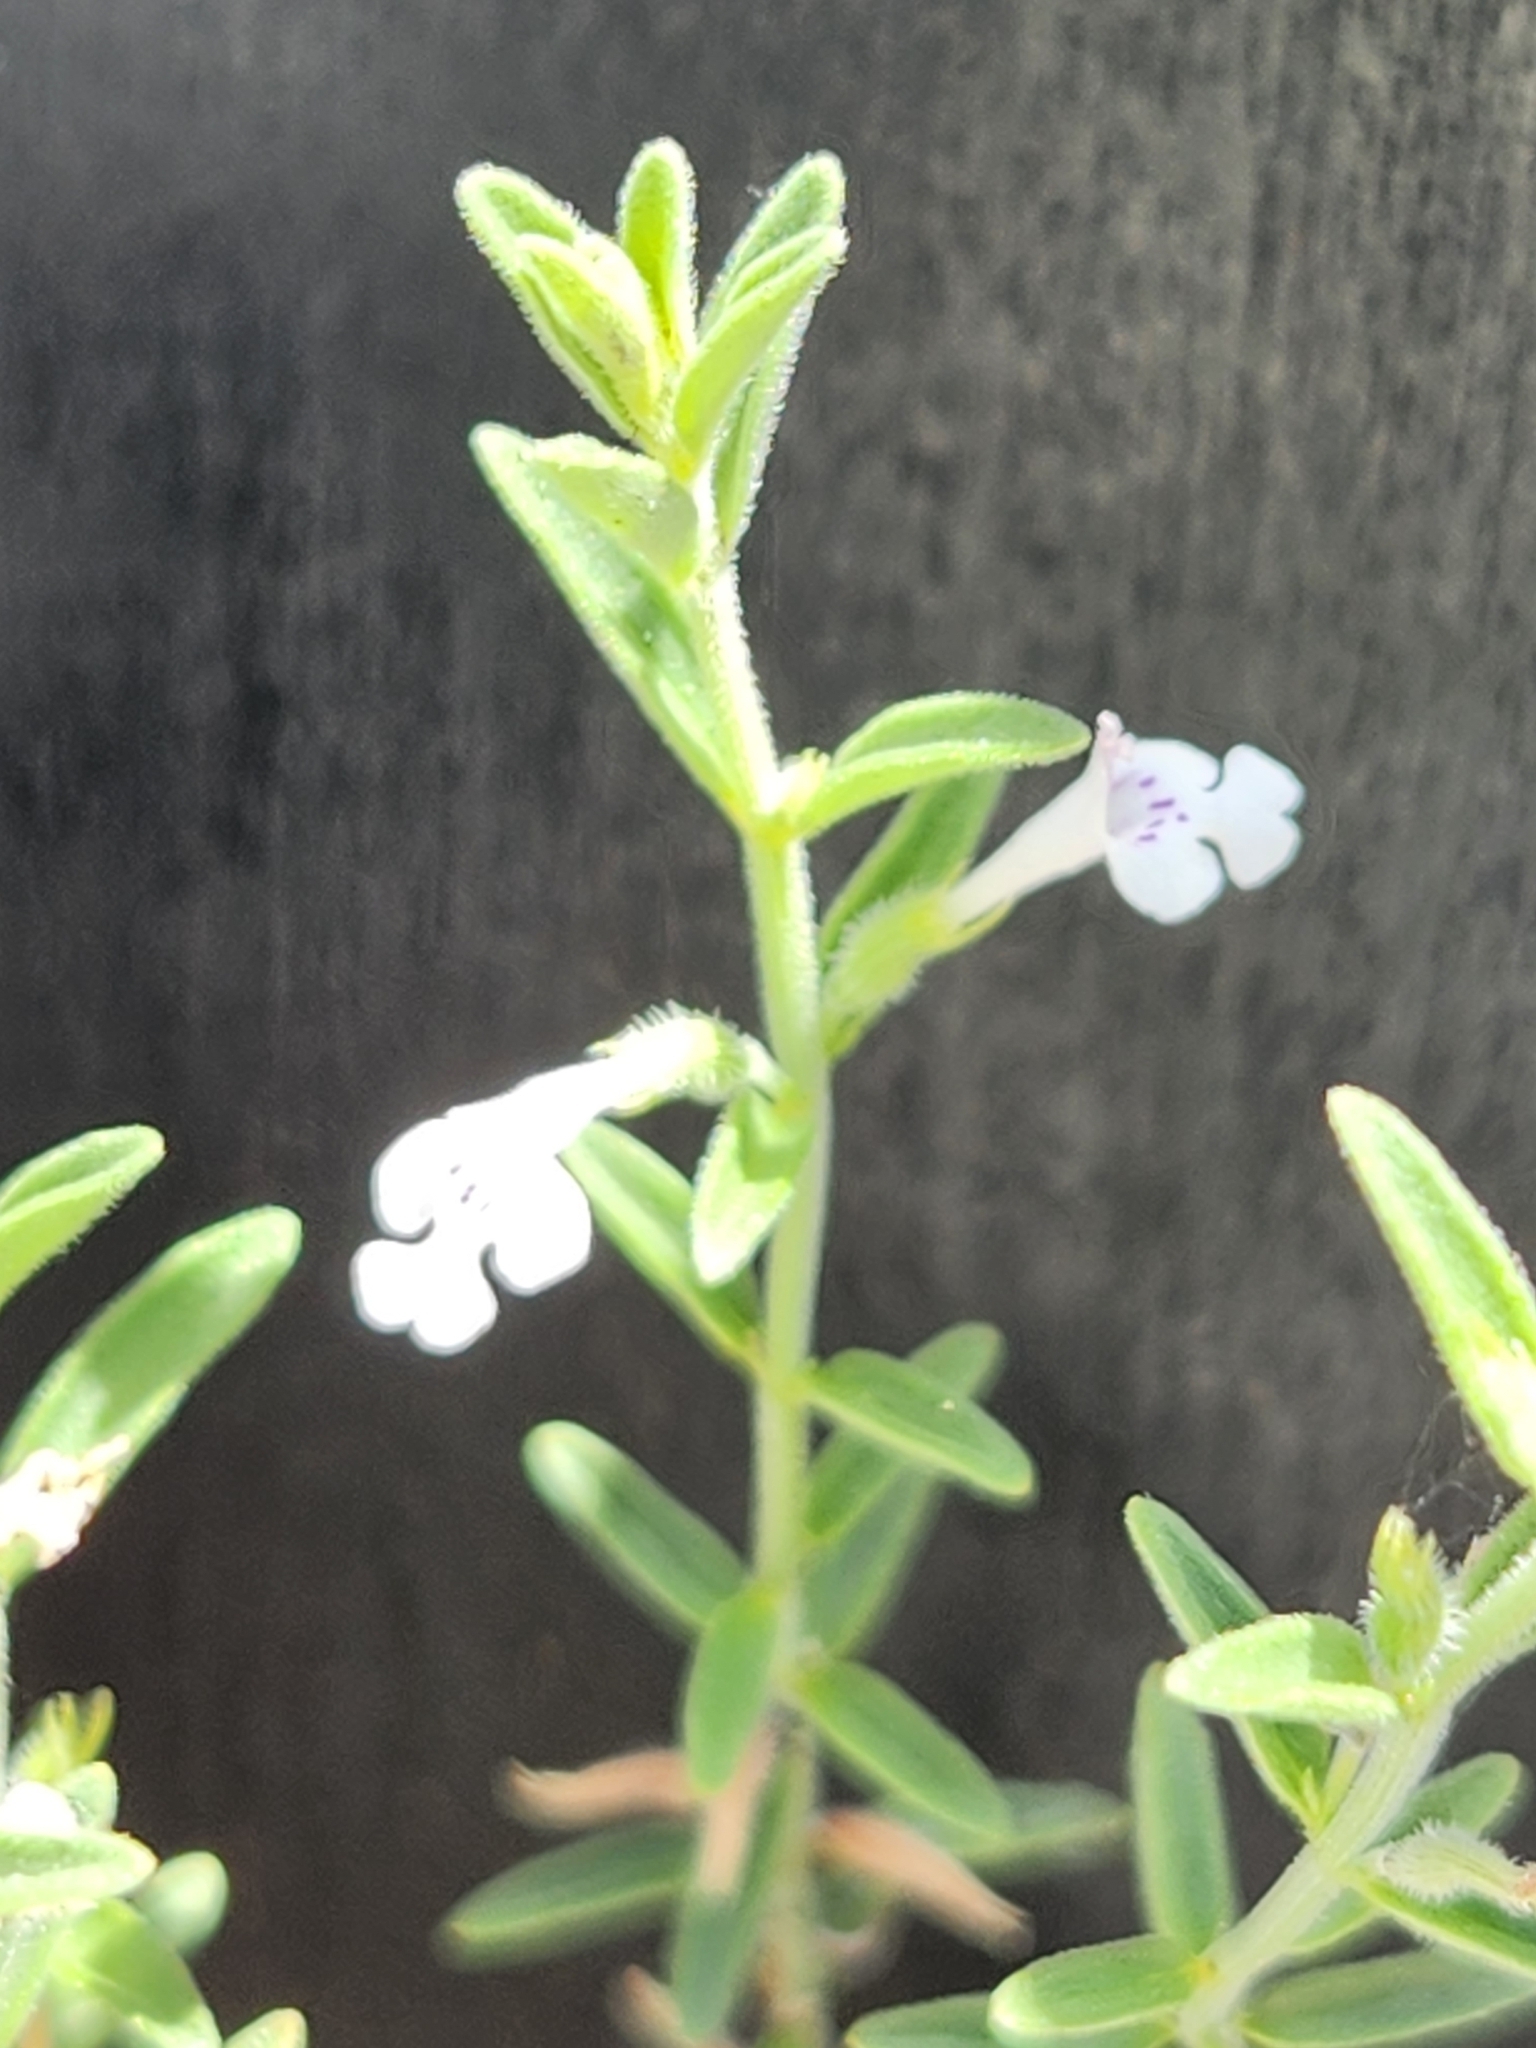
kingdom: Plantae
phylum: Tracheophyta
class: Magnoliopsida
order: Lamiales
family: Lamiaceae
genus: Hedeoma
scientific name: Hedeoma reverchonii
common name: Reverchon's false penny-royal
